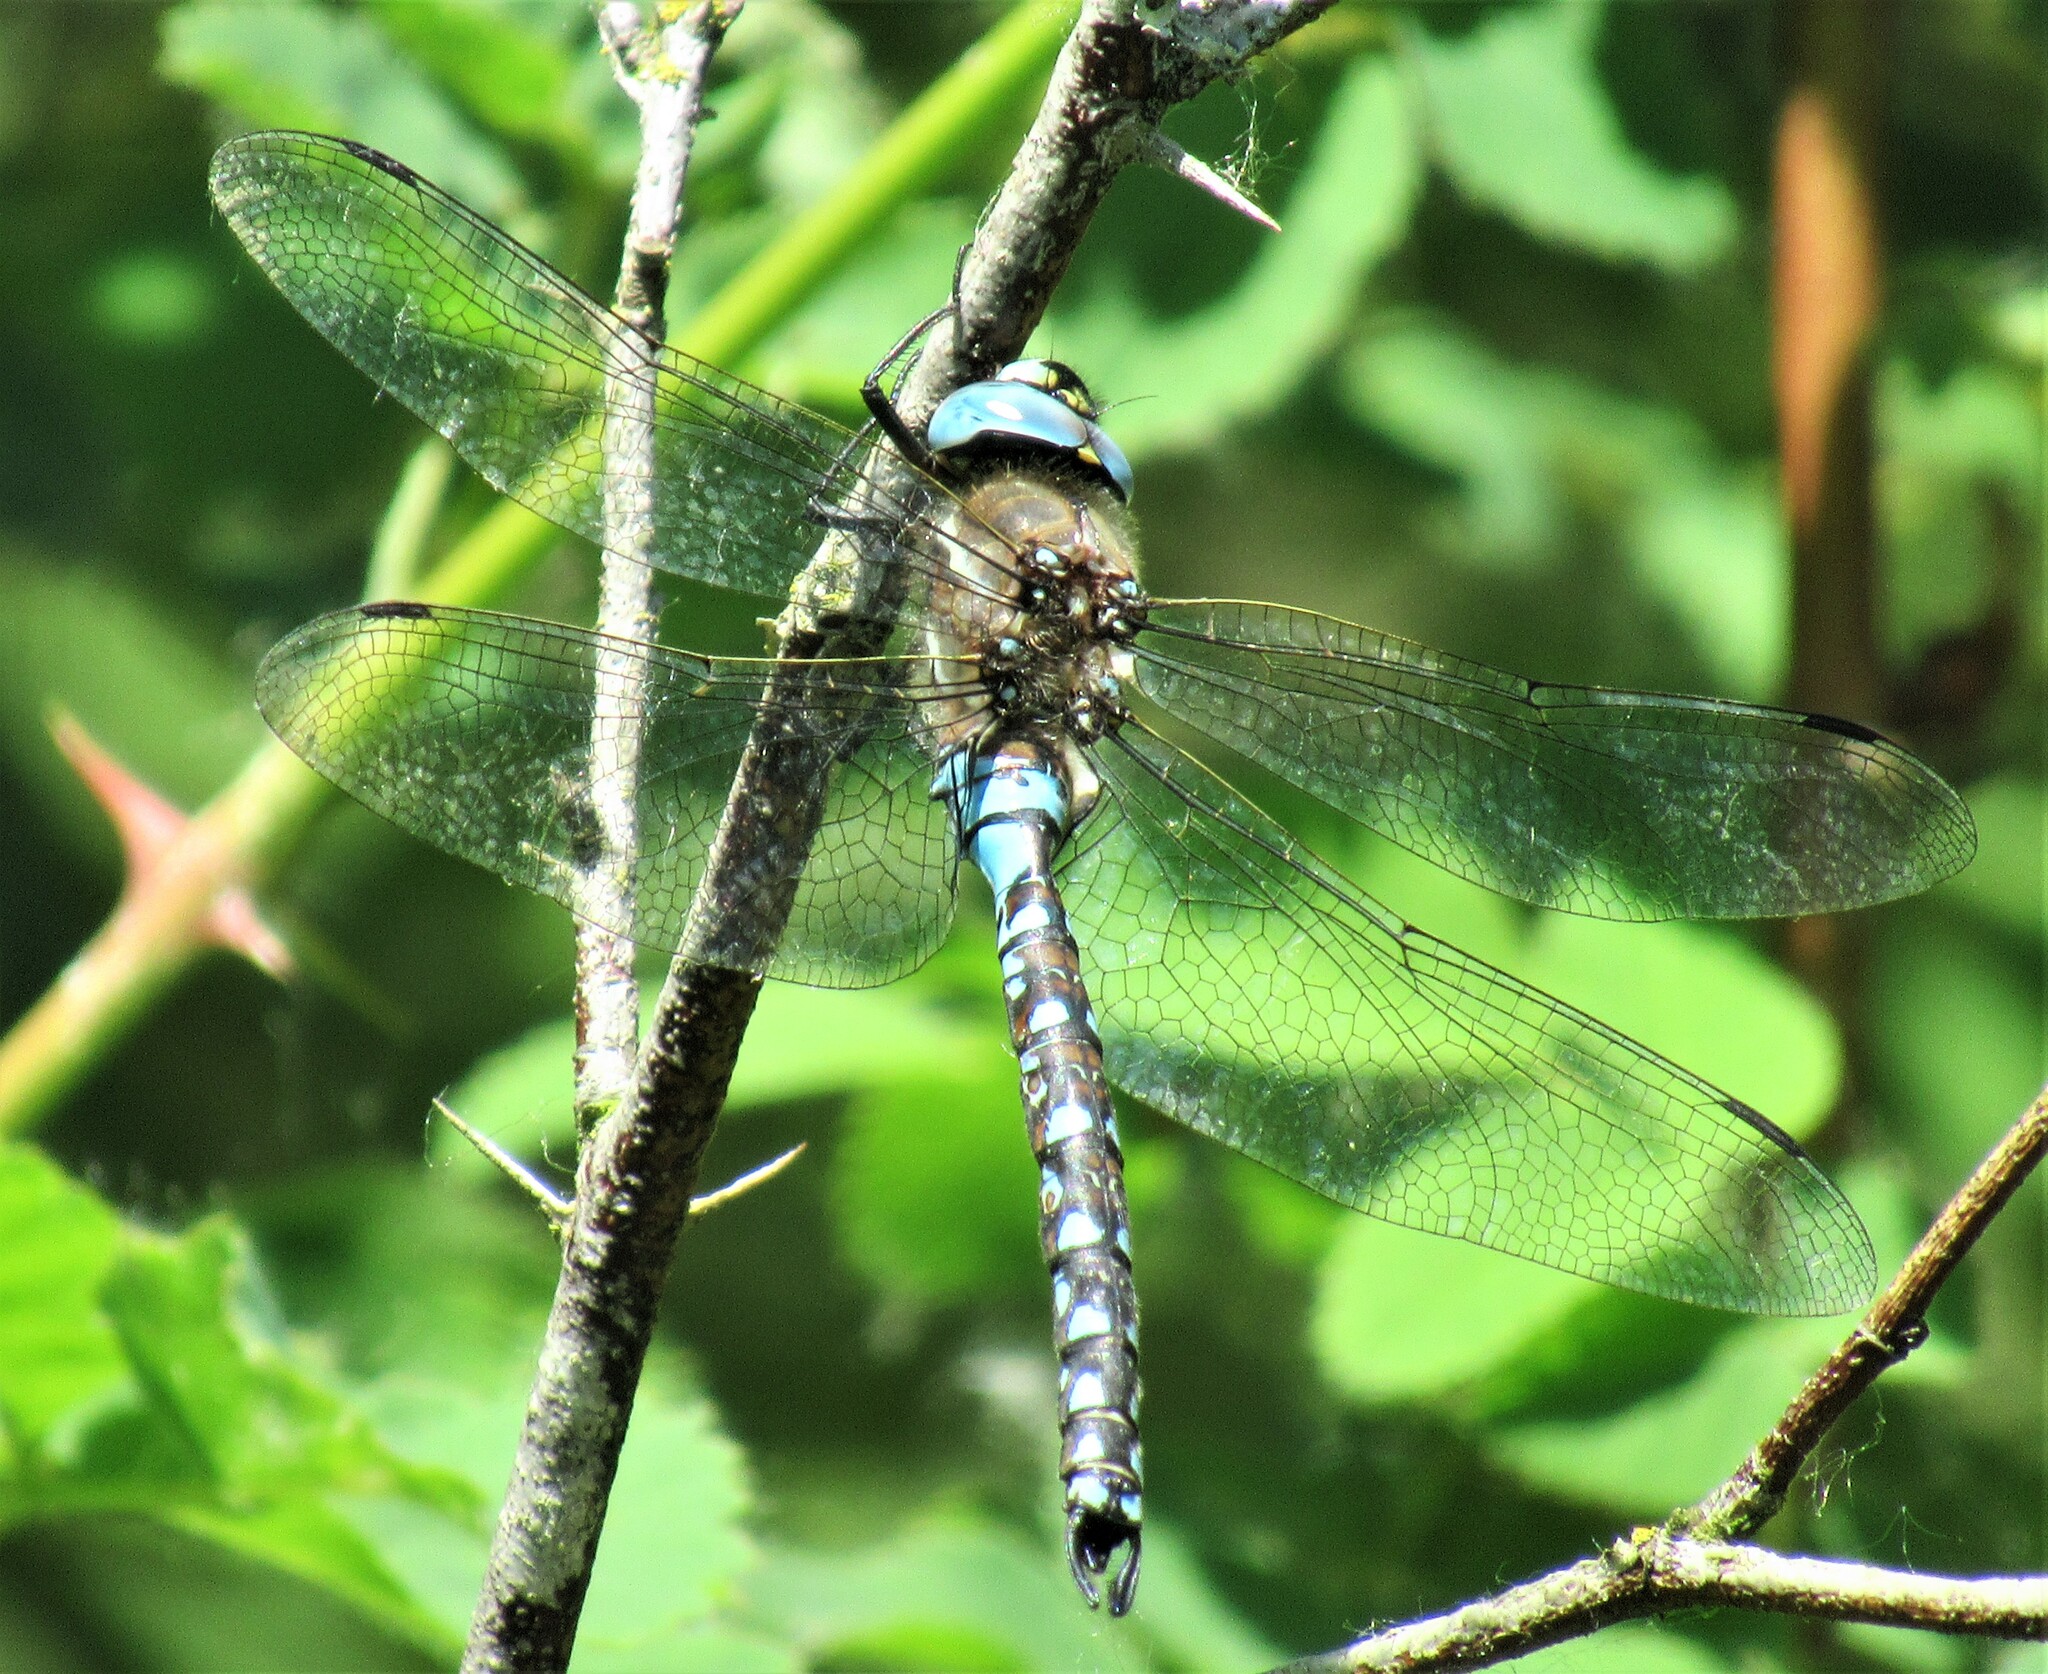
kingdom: Animalia
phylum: Arthropoda
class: Insecta
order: Odonata
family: Aeshnidae
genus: Rhionaeschna
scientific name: Rhionaeschna californica
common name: California darner
